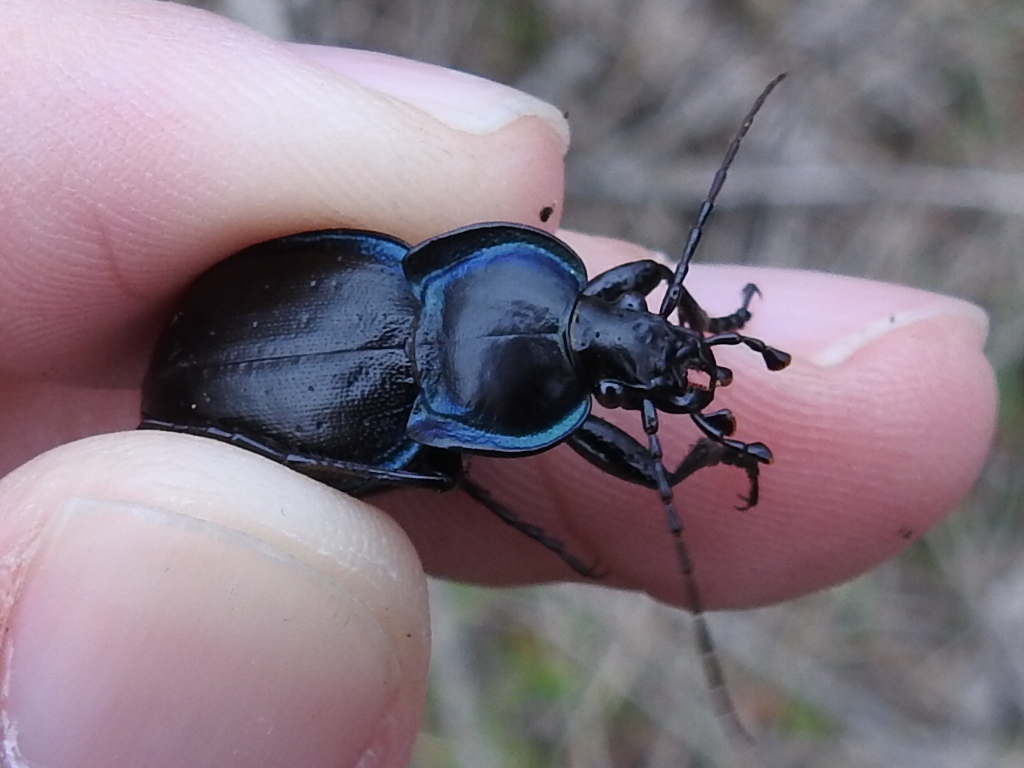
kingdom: Animalia
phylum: Arthropoda
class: Insecta
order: Coleoptera
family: Carabidae
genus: Carabus
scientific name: Carabus finitimus
